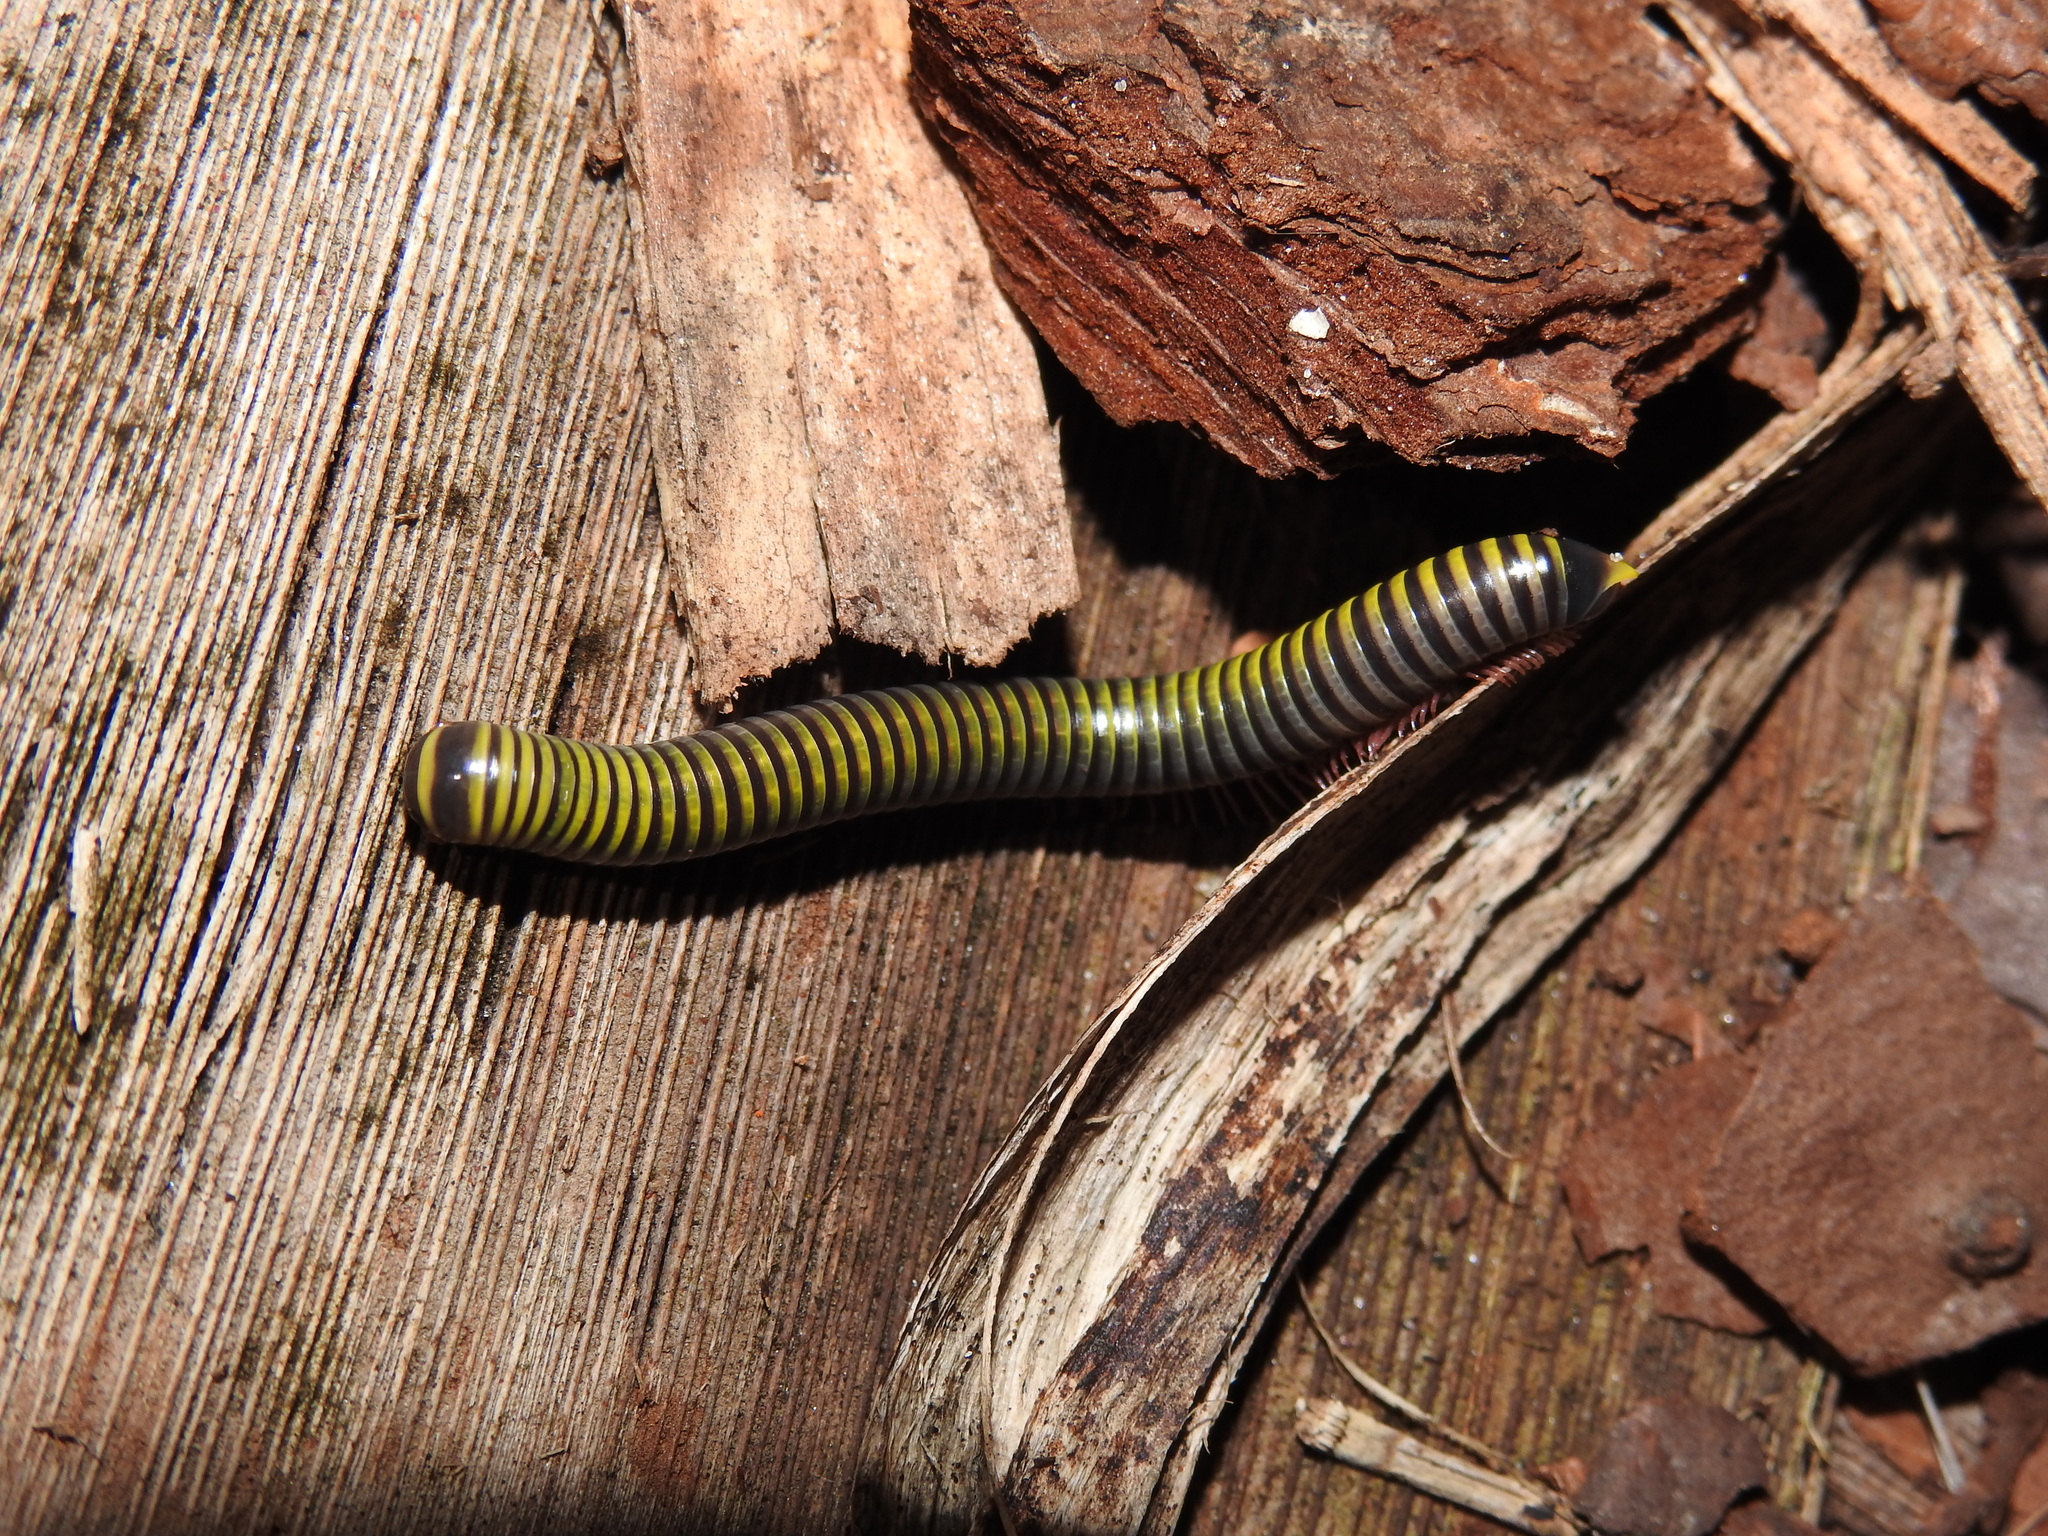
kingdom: Animalia
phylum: Arthropoda
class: Diplopoda
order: Spirobolida
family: Rhinocricidae
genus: Anadenobolus
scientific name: Anadenobolus monilicornis
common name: Caribbean millipede
